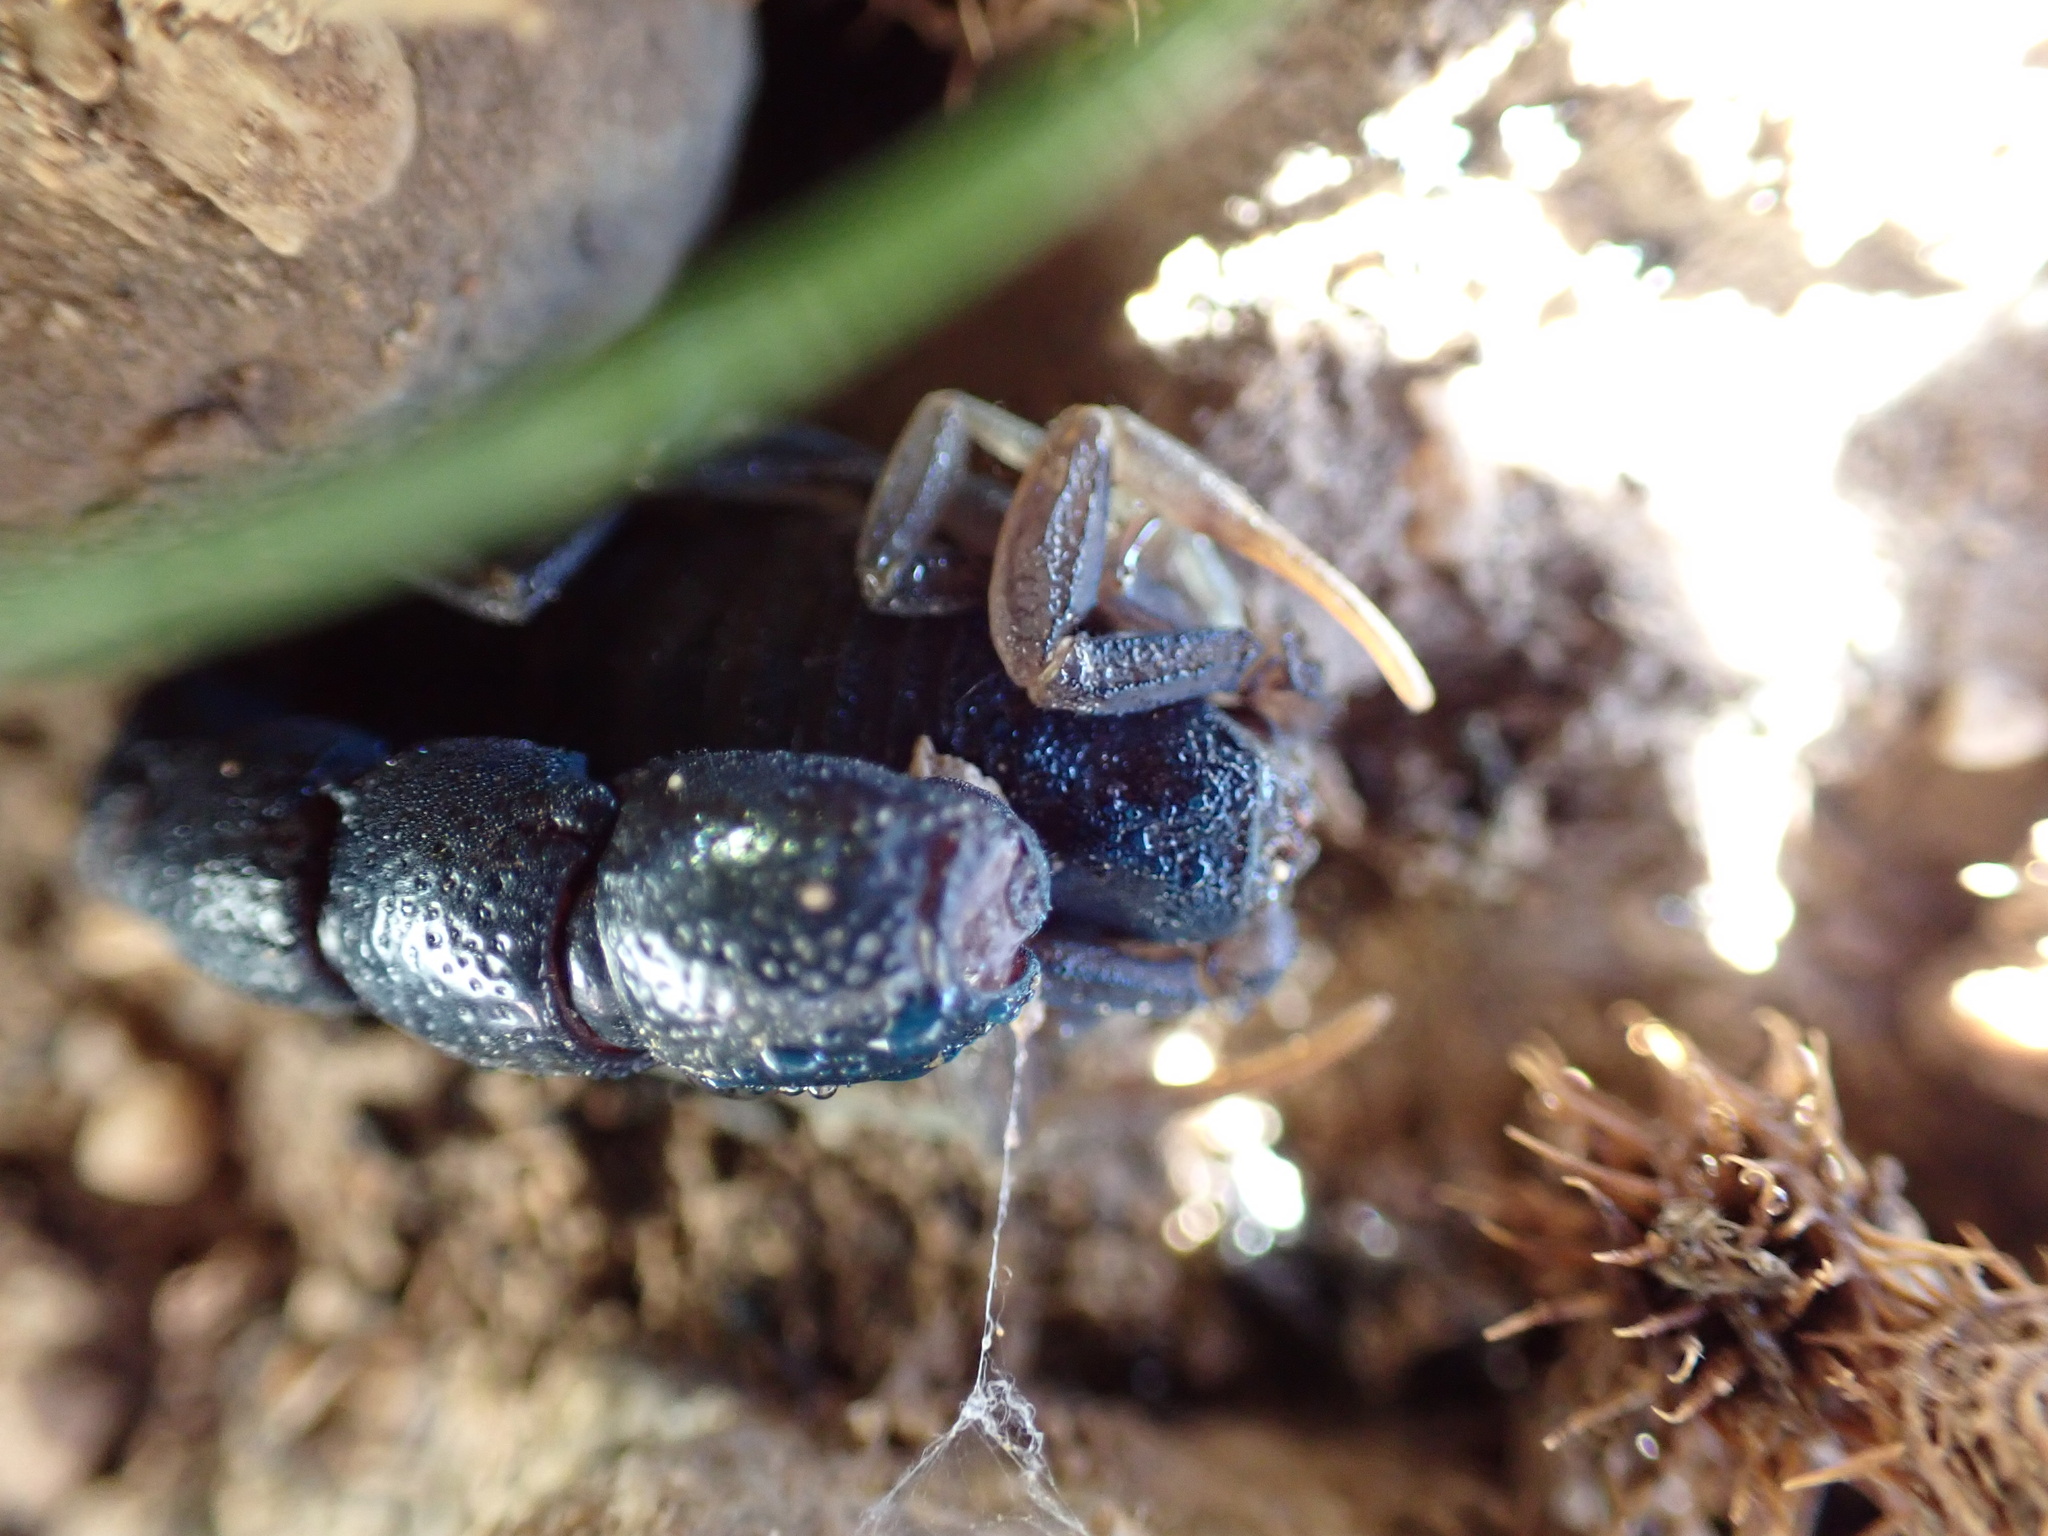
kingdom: Animalia
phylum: Arthropoda
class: Arachnida
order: Scorpiones
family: Buthidae
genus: Orthochirus
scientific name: Orthochirus farzanpayi
